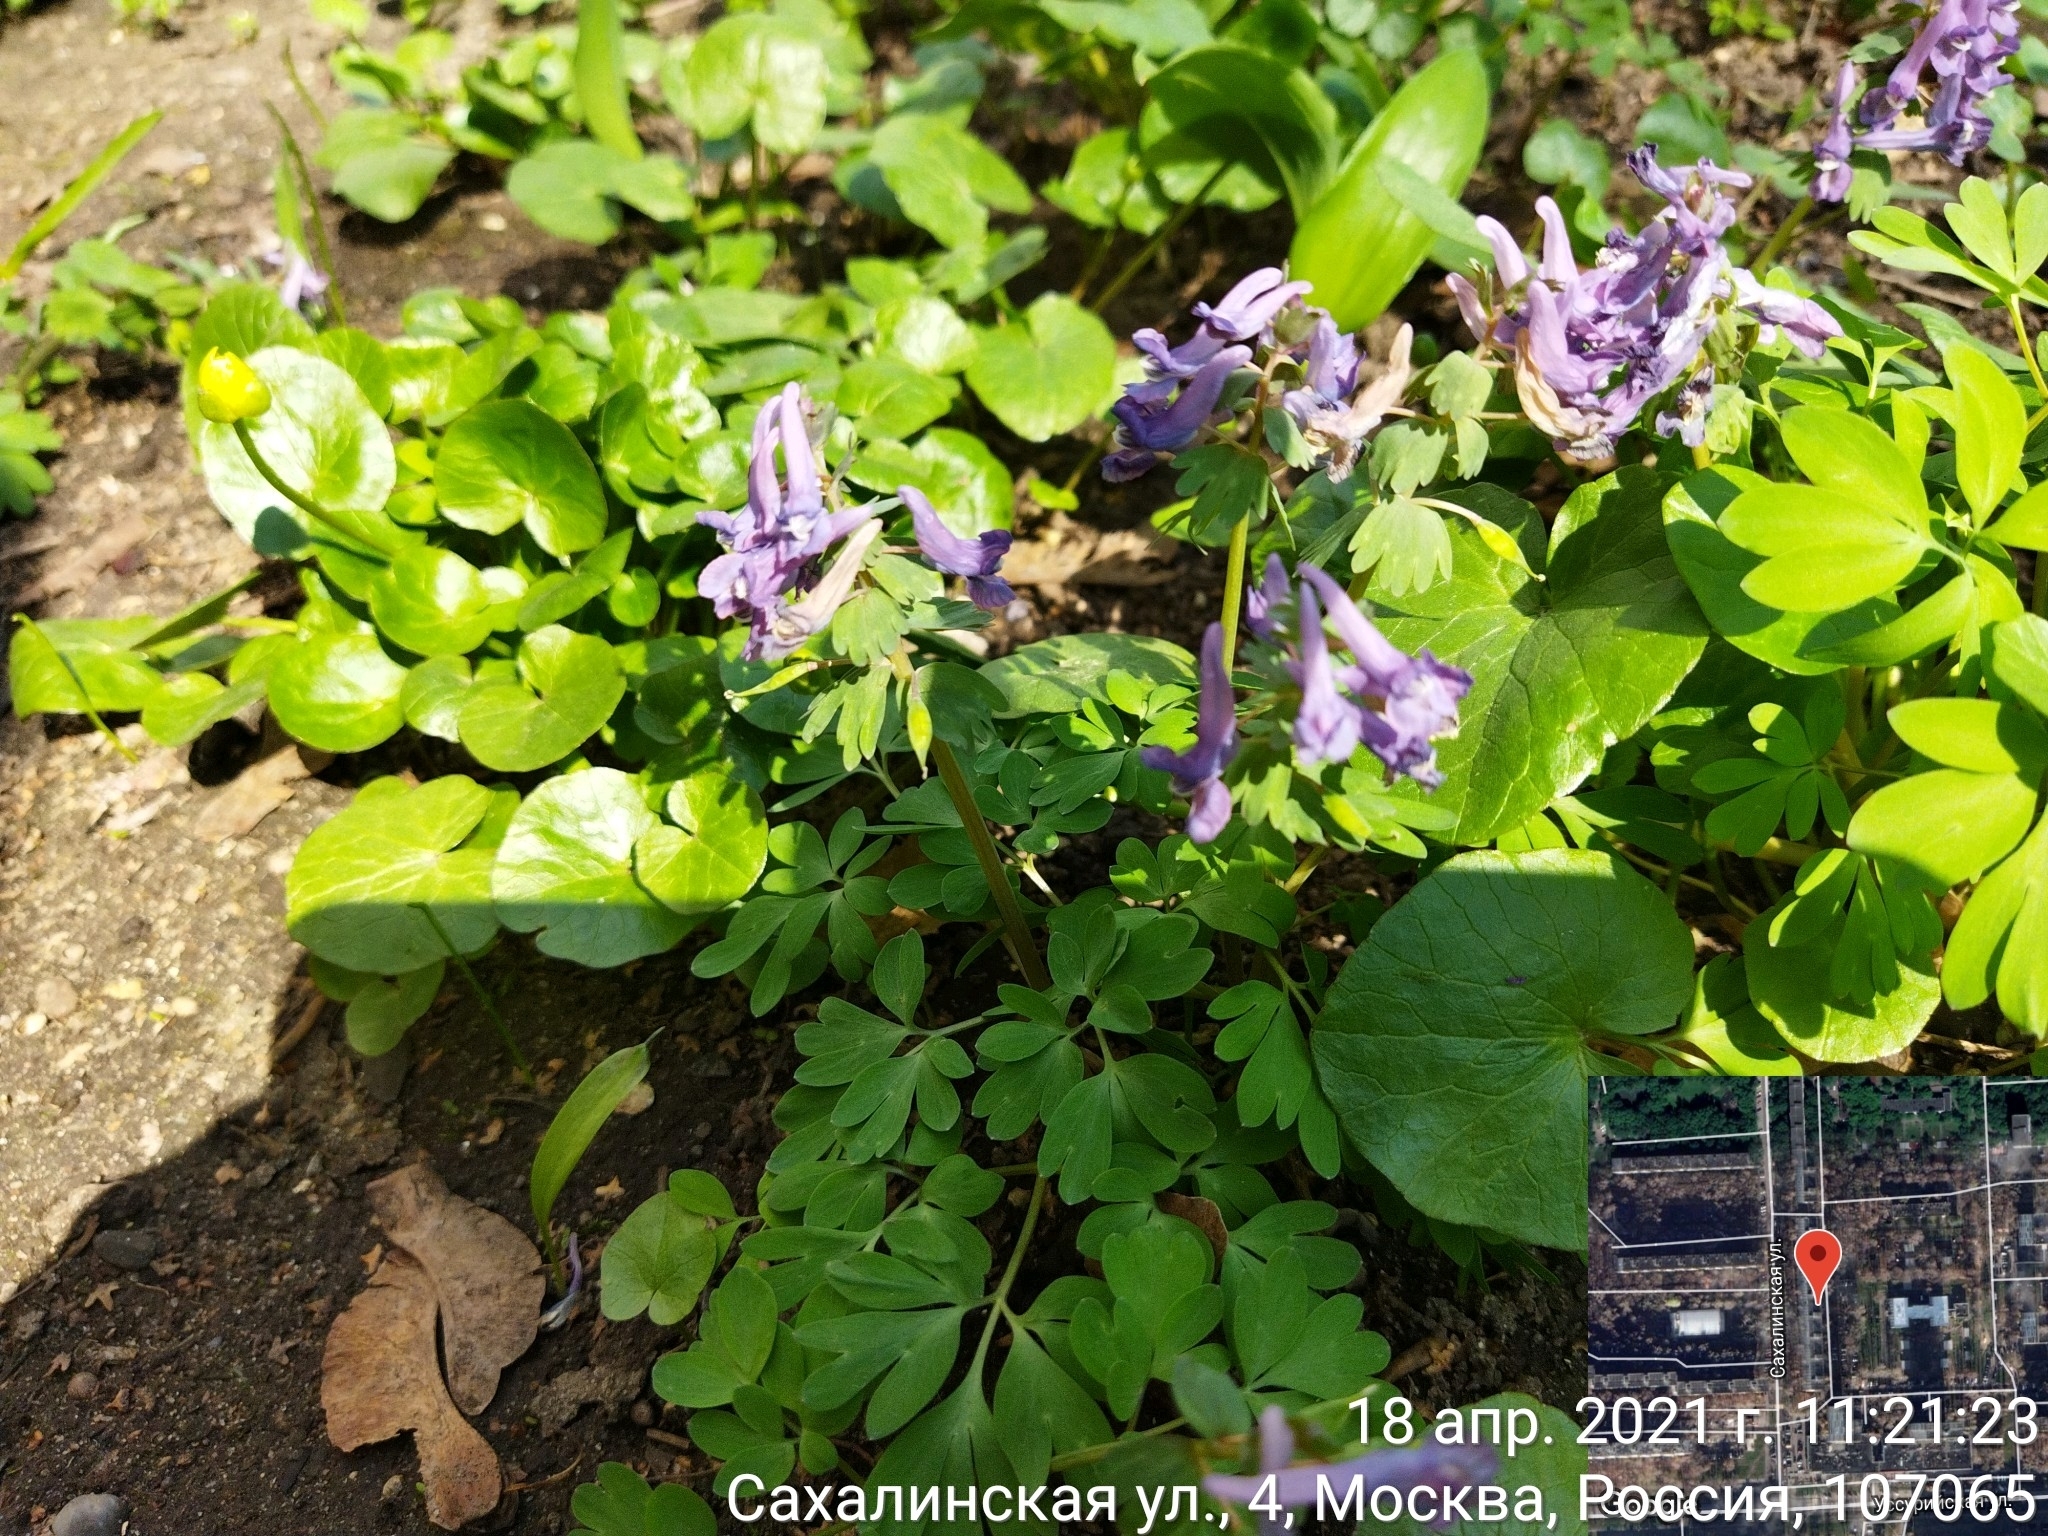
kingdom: Plantae
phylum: Tracheophyta
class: Magnoliopsida
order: Ranunculales
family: Papaveraceae
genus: Corydalis
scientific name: Corydalis solida
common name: Bird-in-a-bush
